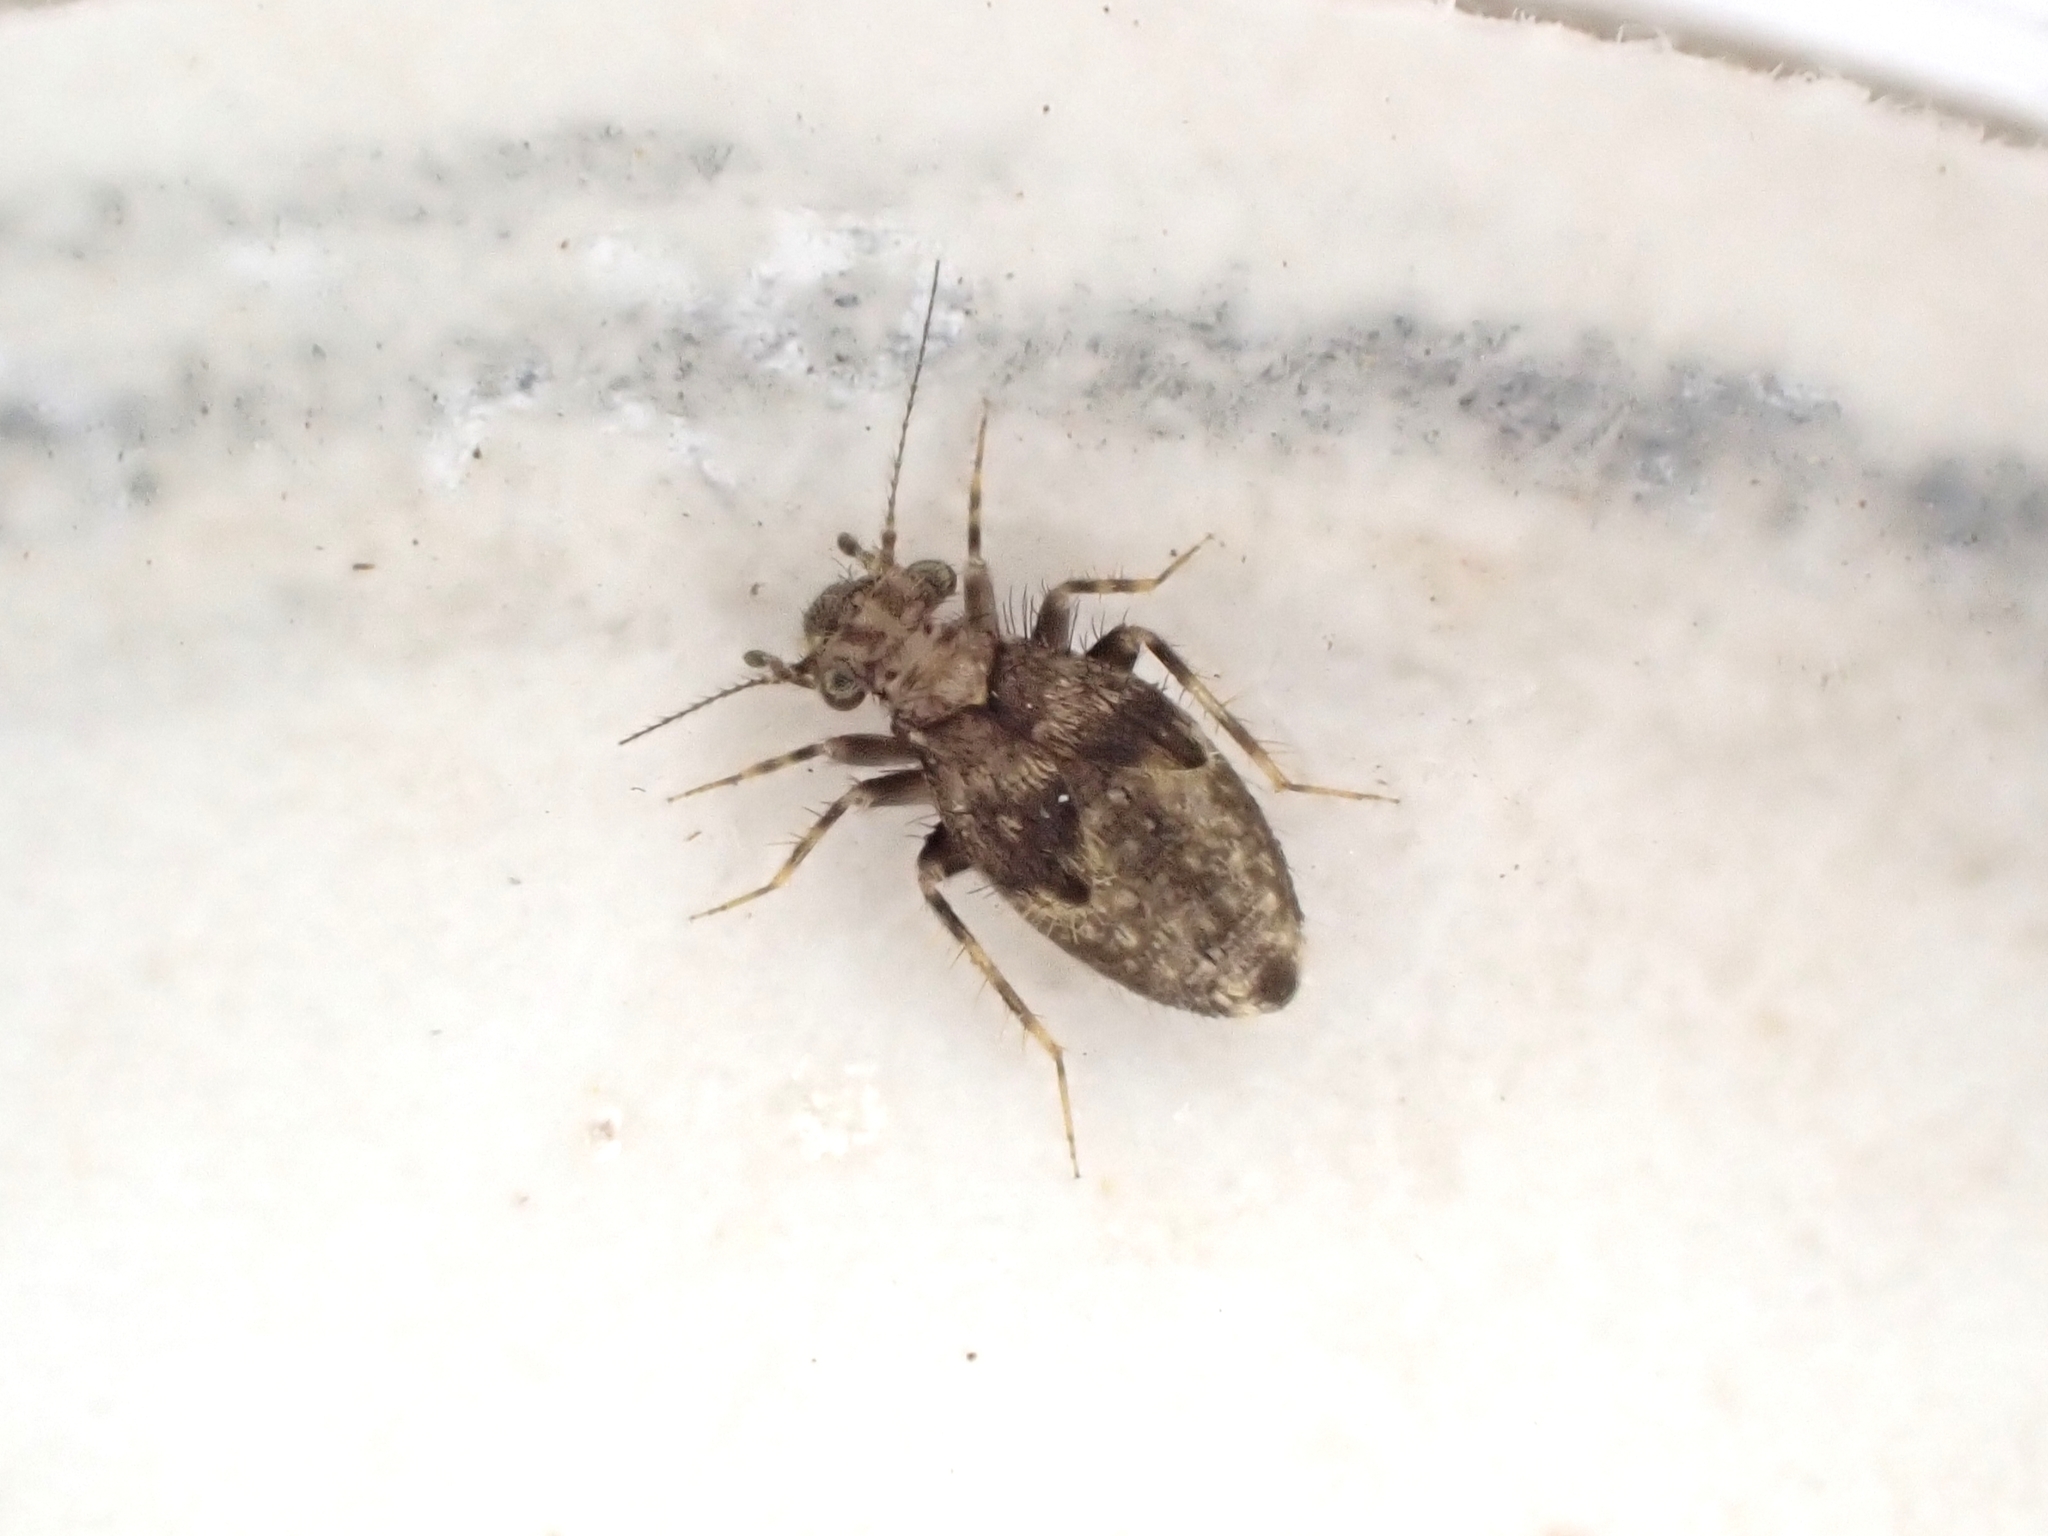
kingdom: Animalia
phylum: Arthropoda
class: Insecta
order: Psocodea
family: Lepidopsocidae
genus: Pteroxanium
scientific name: Pteroxanium kelloggi
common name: Bark lice
